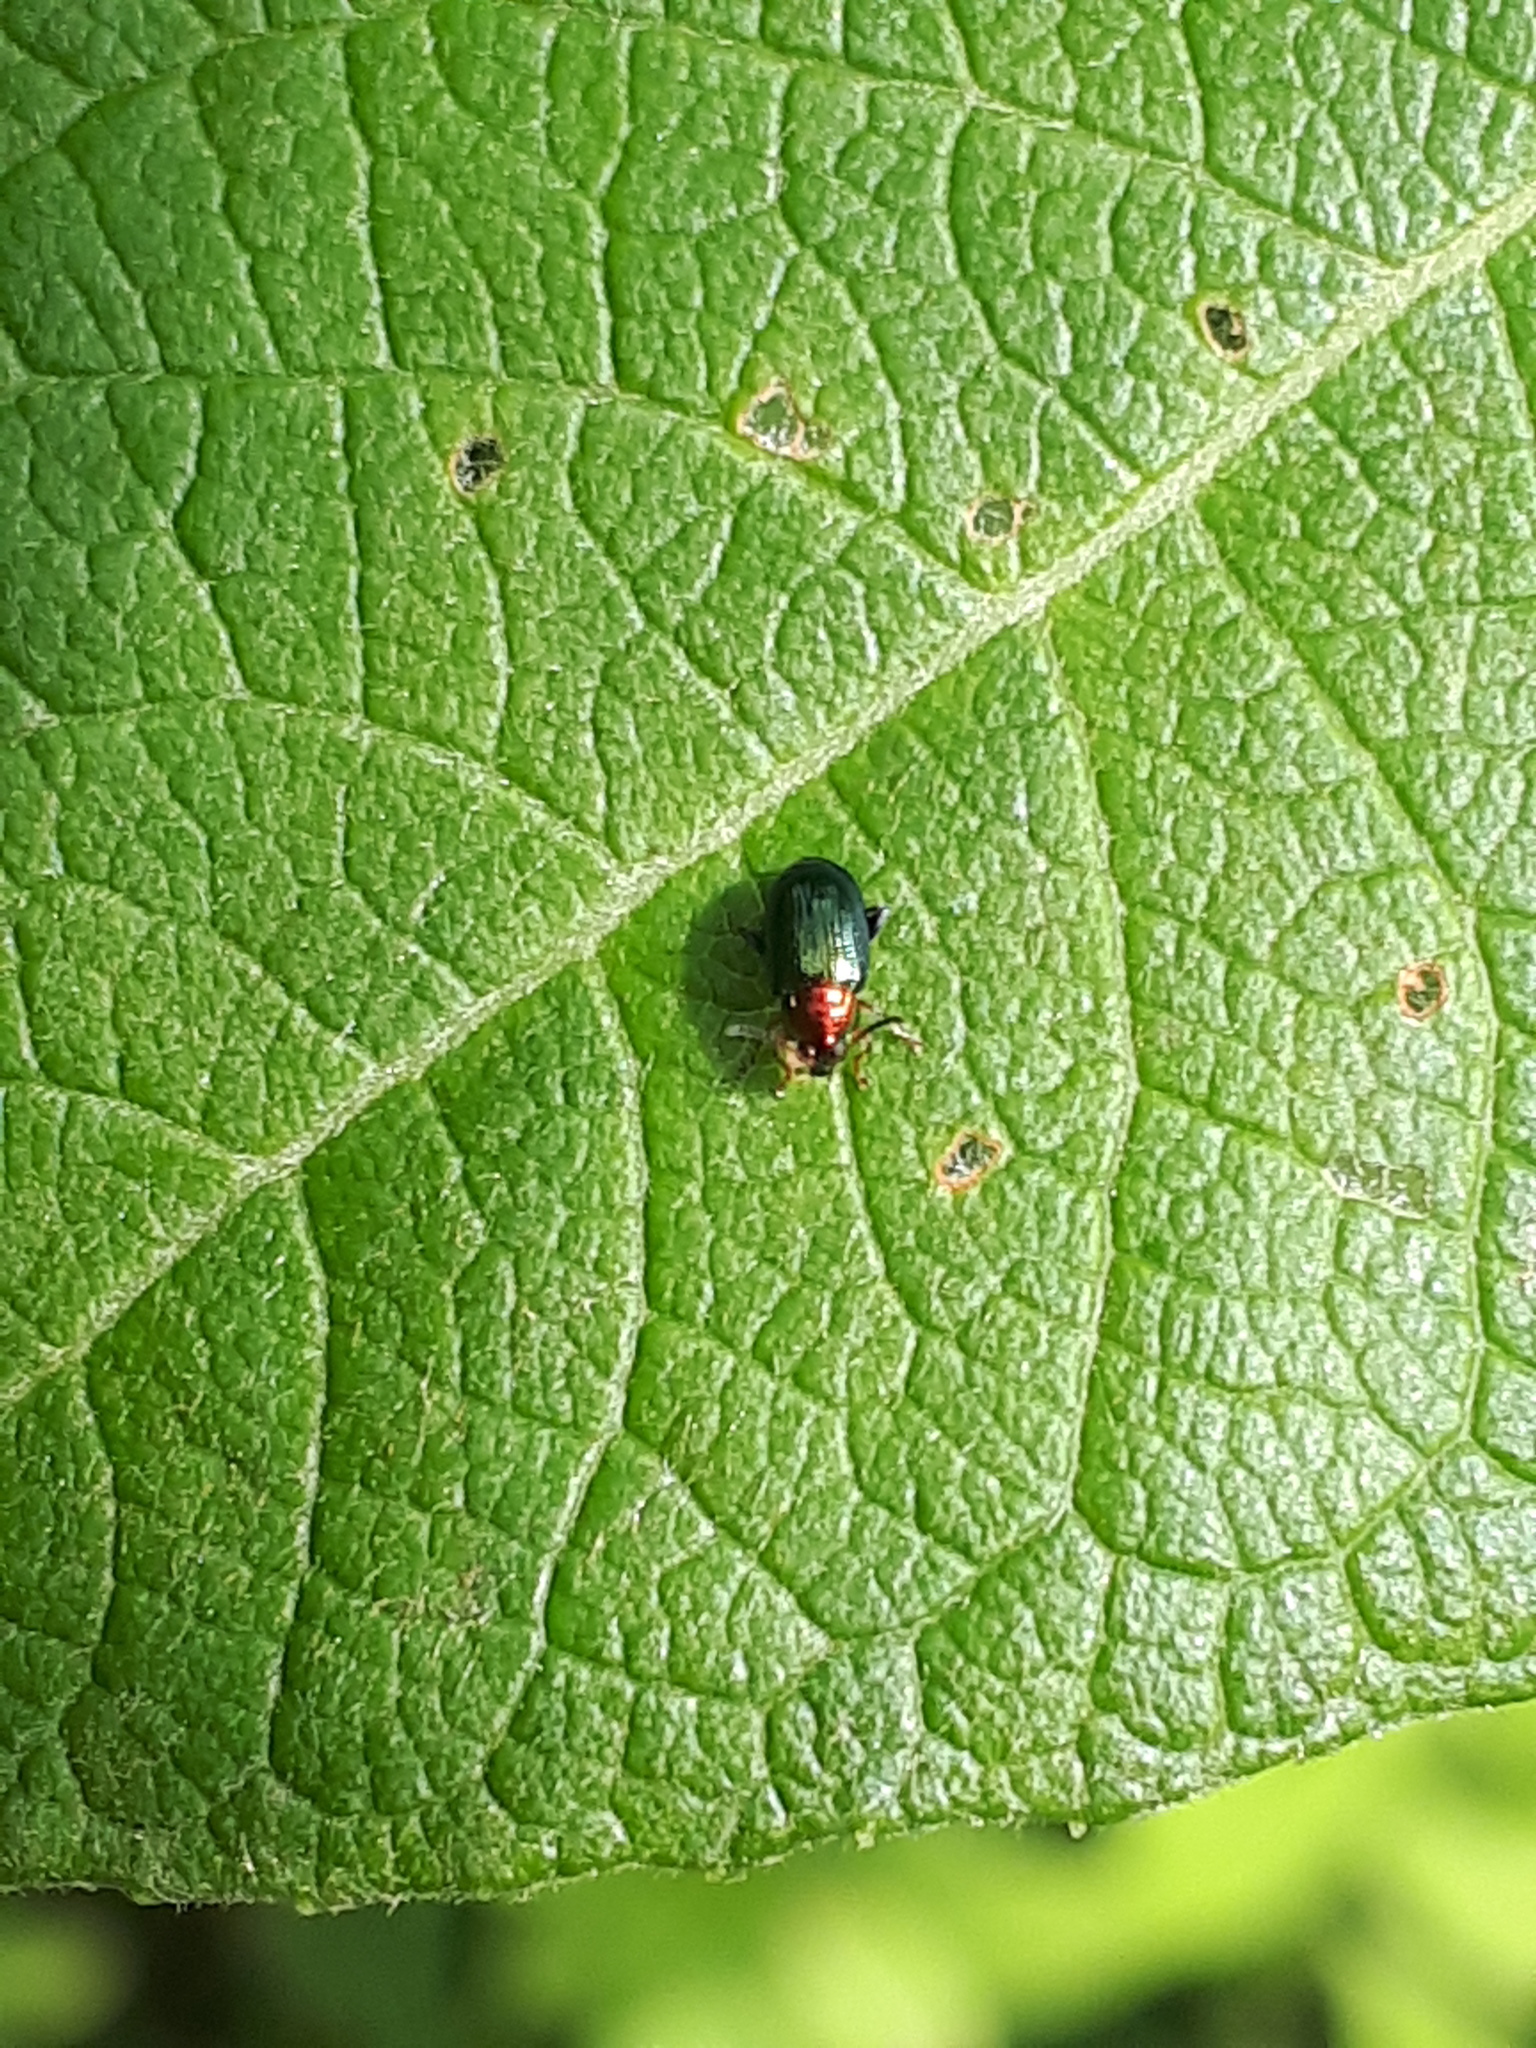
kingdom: Animalia
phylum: Arthropoda
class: Insecta
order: Coleoptera
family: Chrysomelidae
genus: Crepidodera
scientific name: Crepidodera aurata
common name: Willow flea beetle
